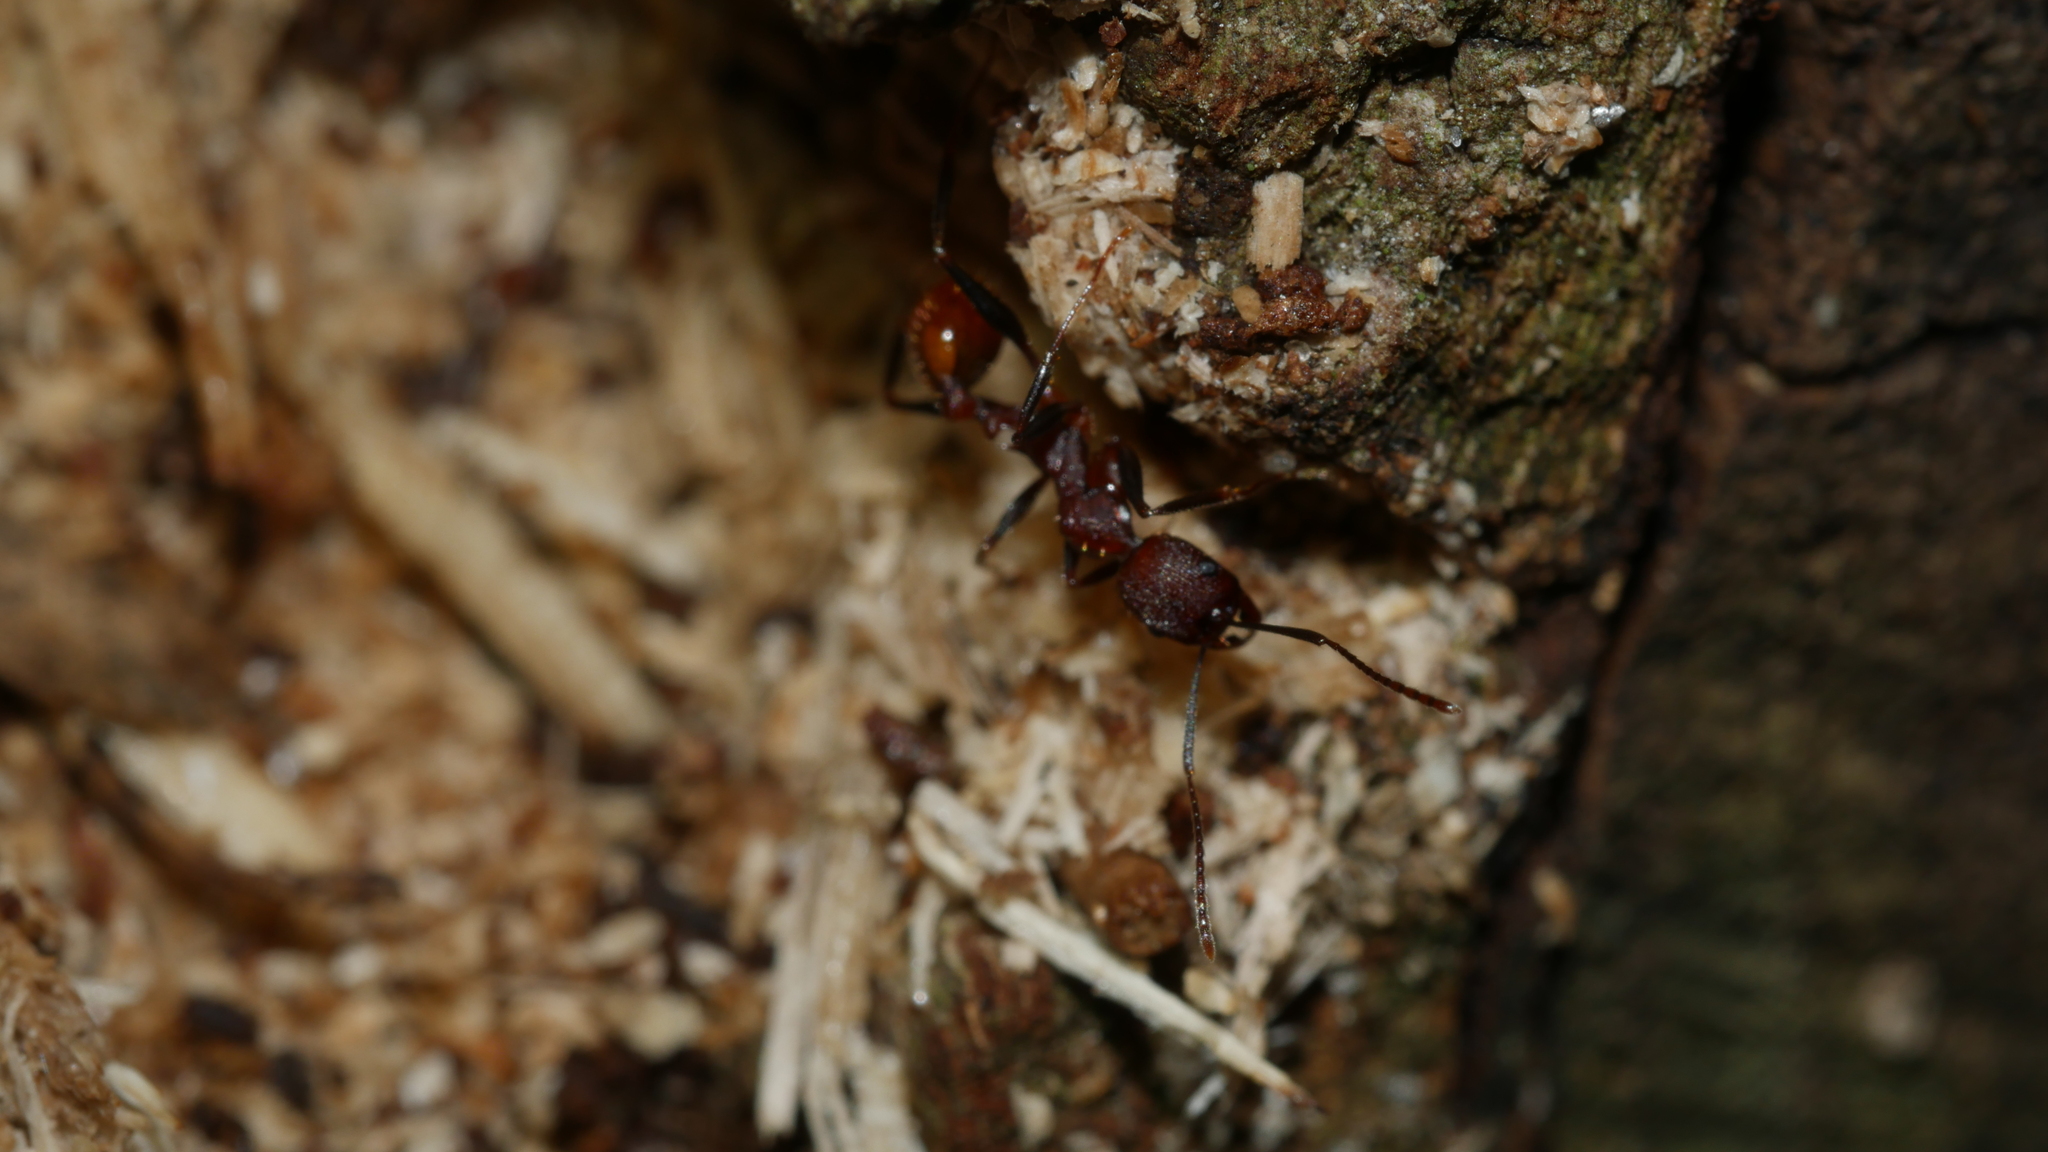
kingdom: Animalia
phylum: Arthropoda
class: Insecta
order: Hymenoptera
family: Formicidae
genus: Aphaenogaster
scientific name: Aphaenogaster lamellidens
